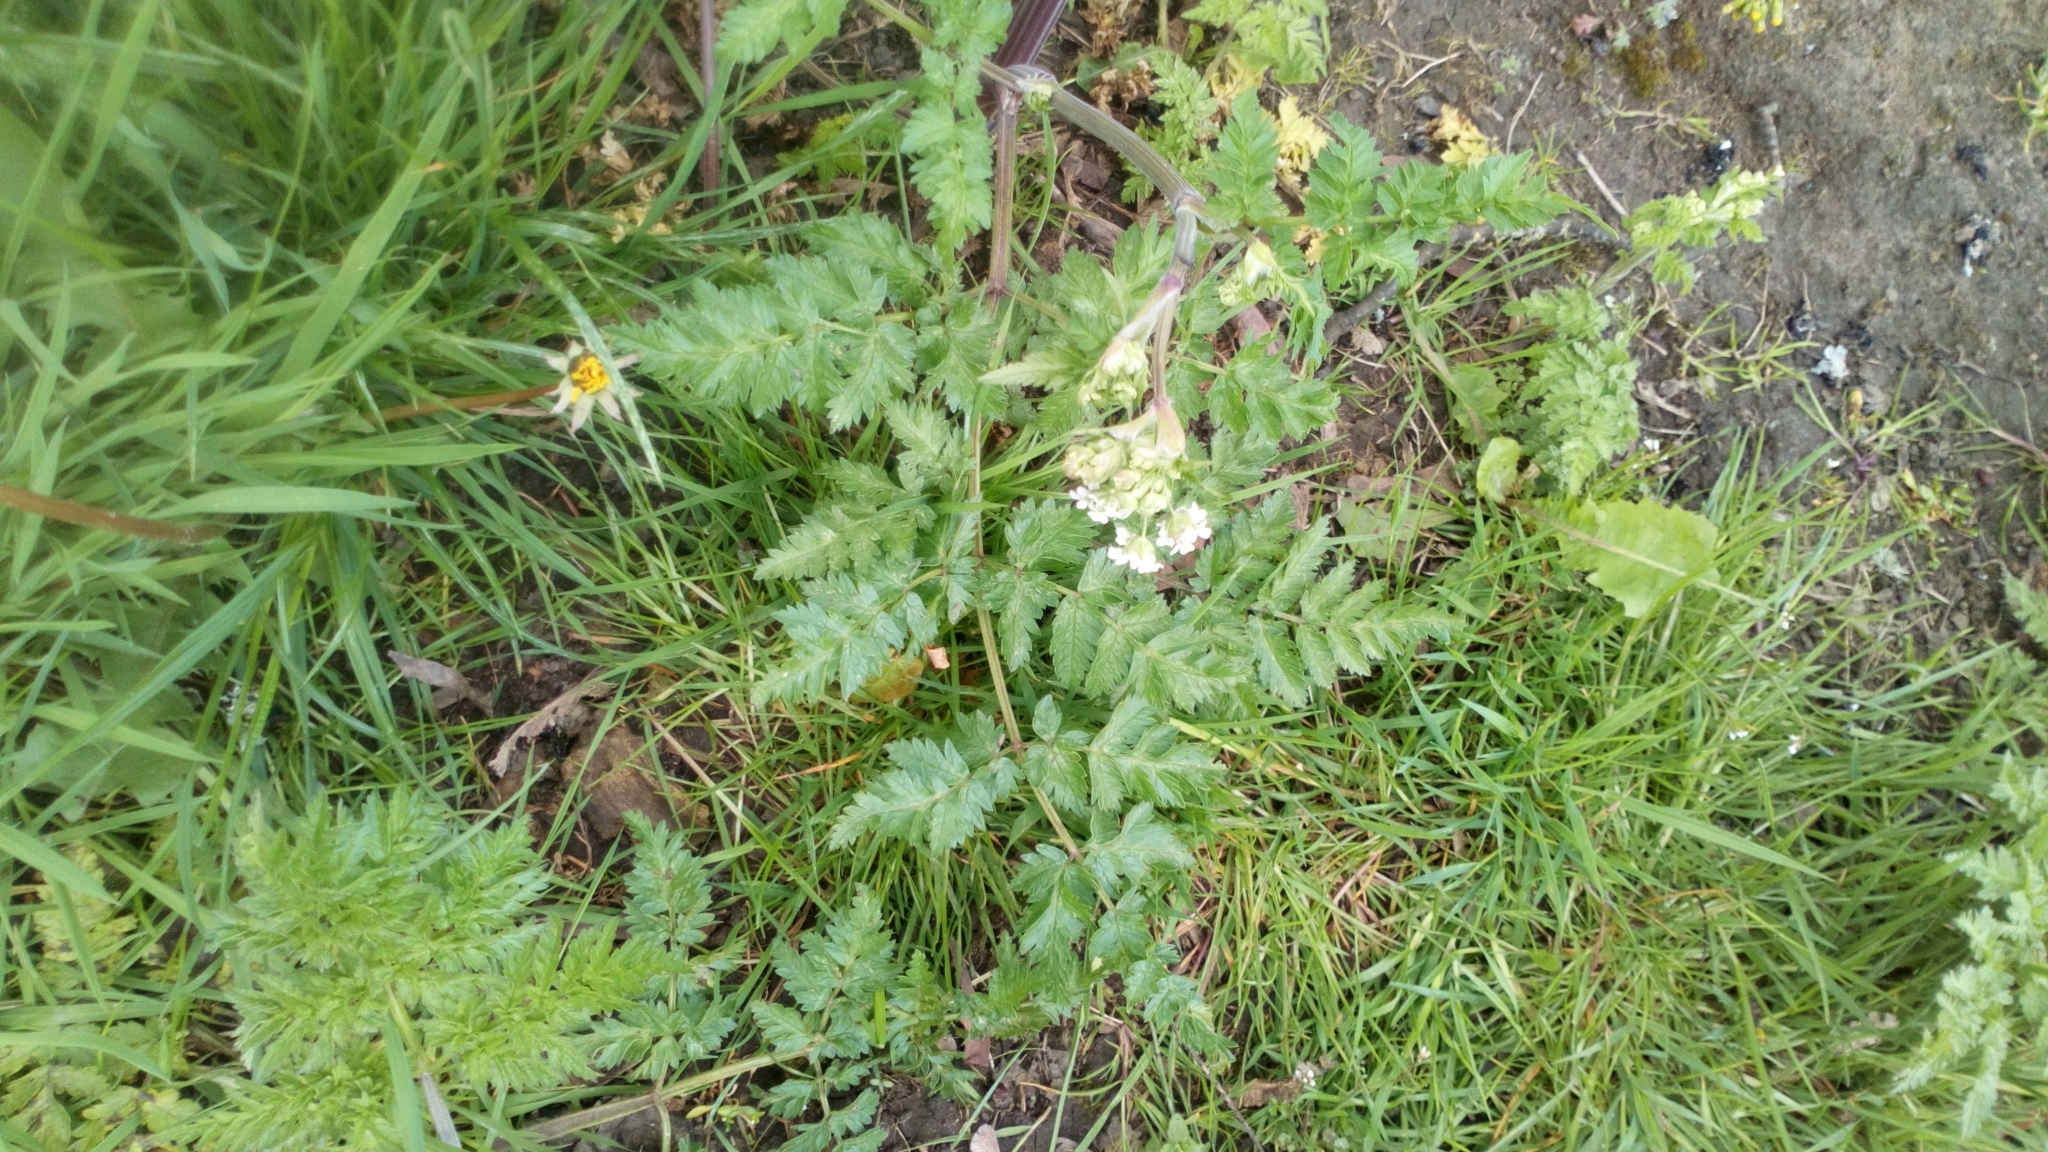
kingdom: Plantae
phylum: Tracheophyta
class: Magnoliopsida
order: Apiales
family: Apiaceae
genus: Anthriscus
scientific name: Anthriscus sylvestris
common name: Cow parsley
